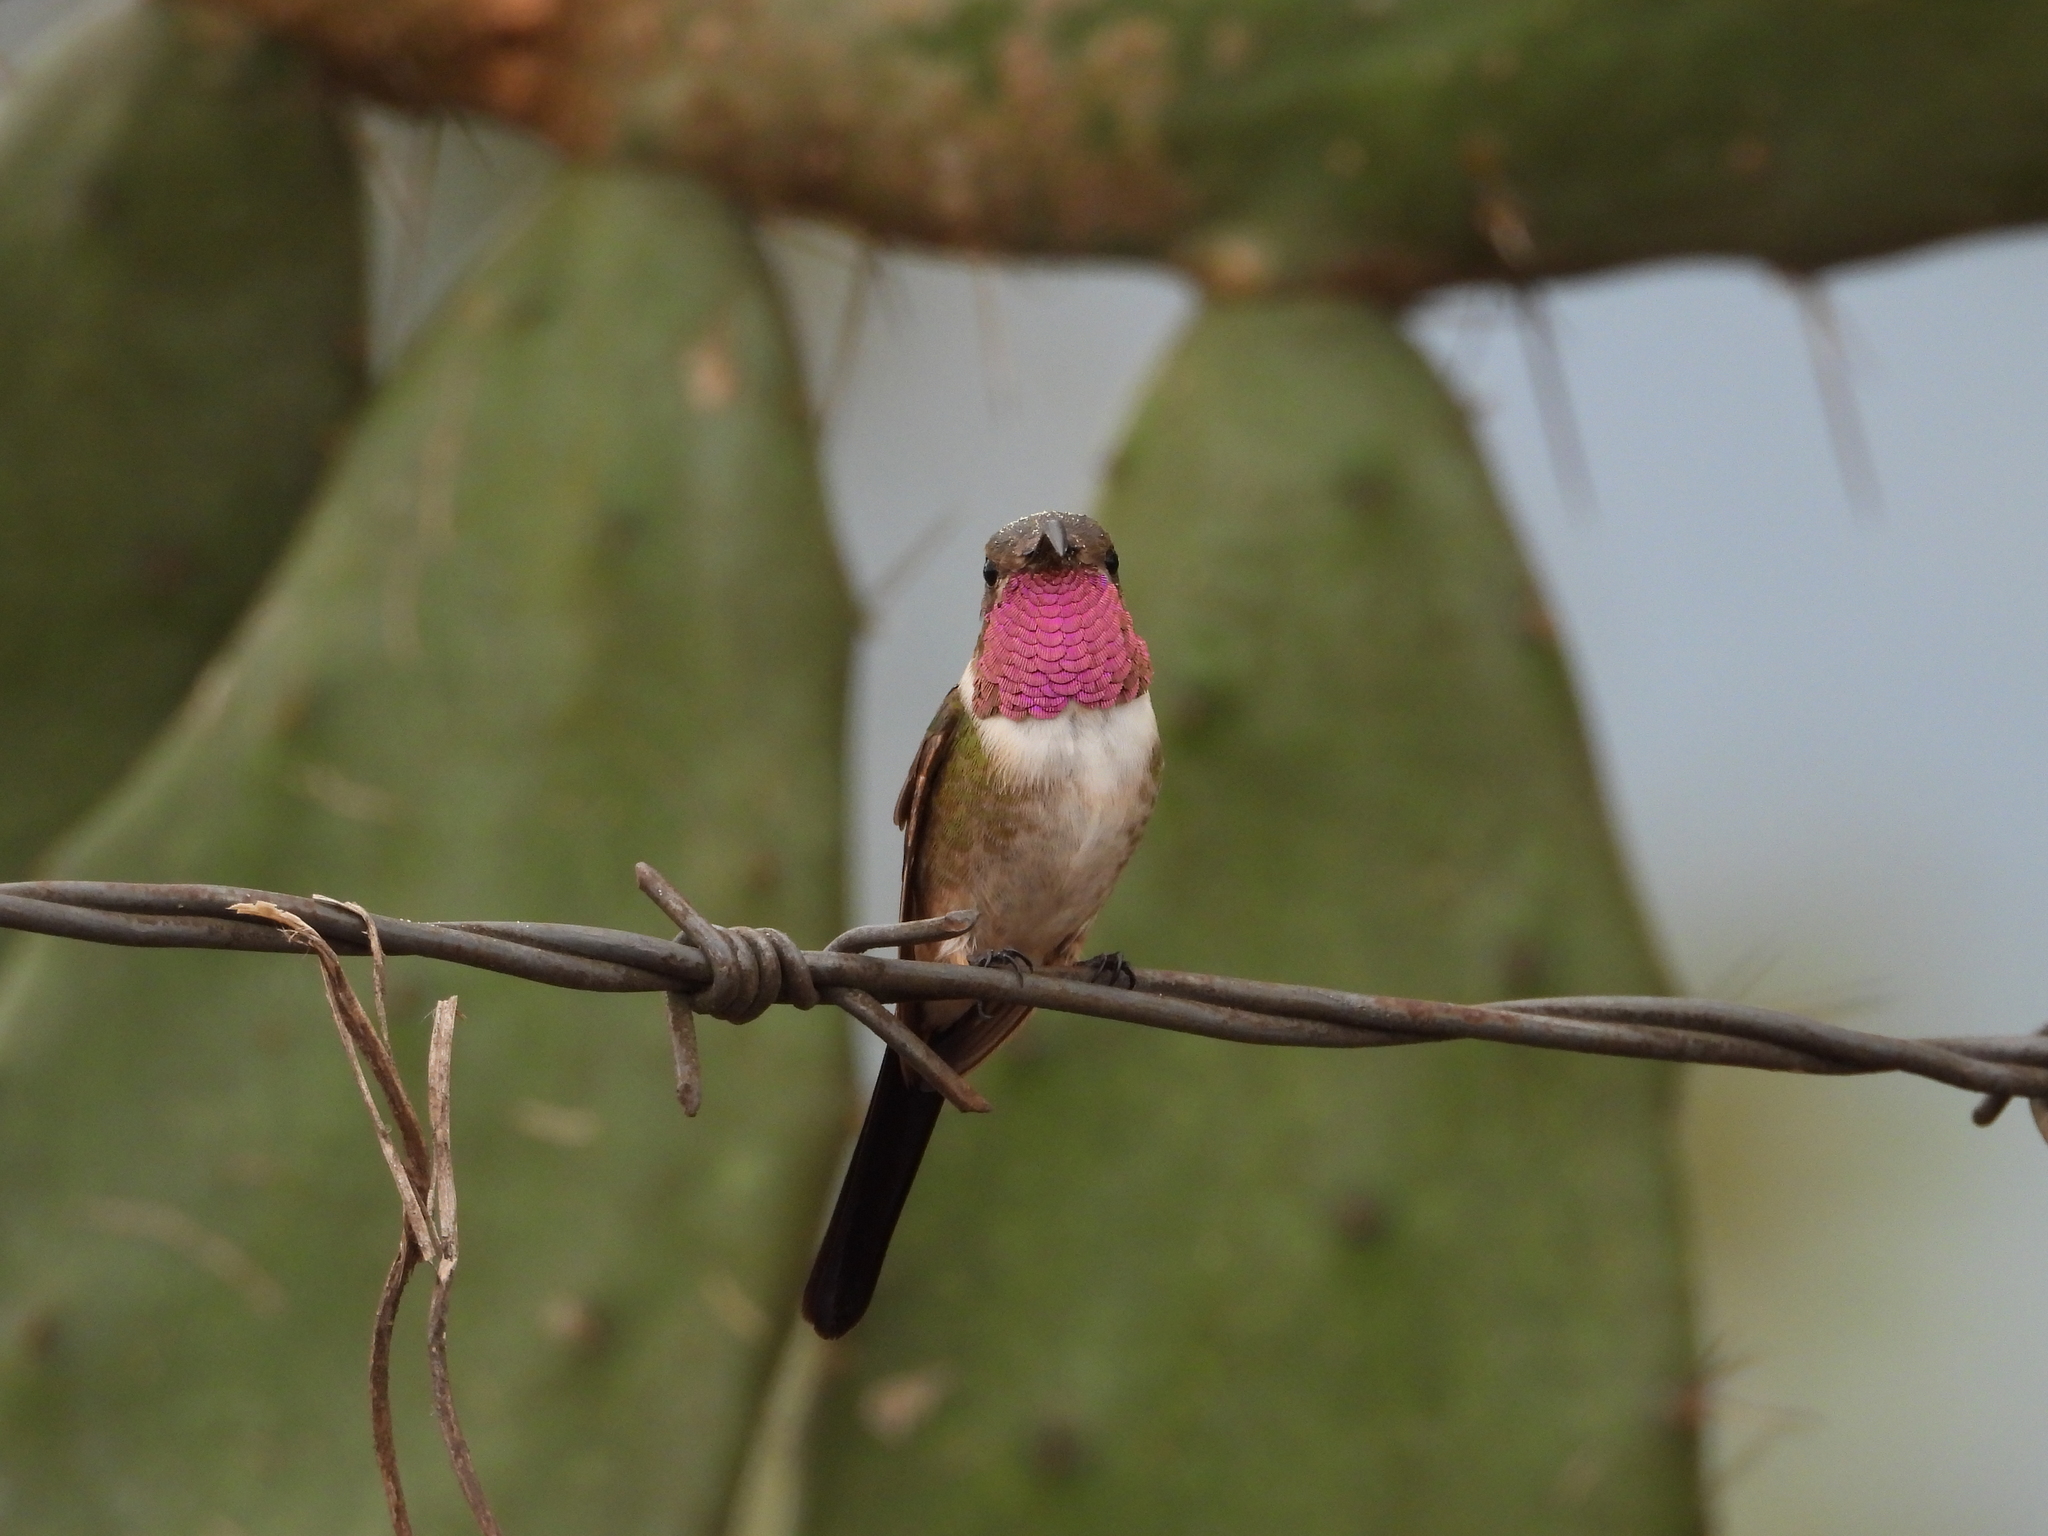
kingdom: Animalia
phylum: Chordata
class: Aves
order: Apodiformes
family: Trochilidae
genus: Doricha
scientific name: Doricha eliza
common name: Mexican sheartail
